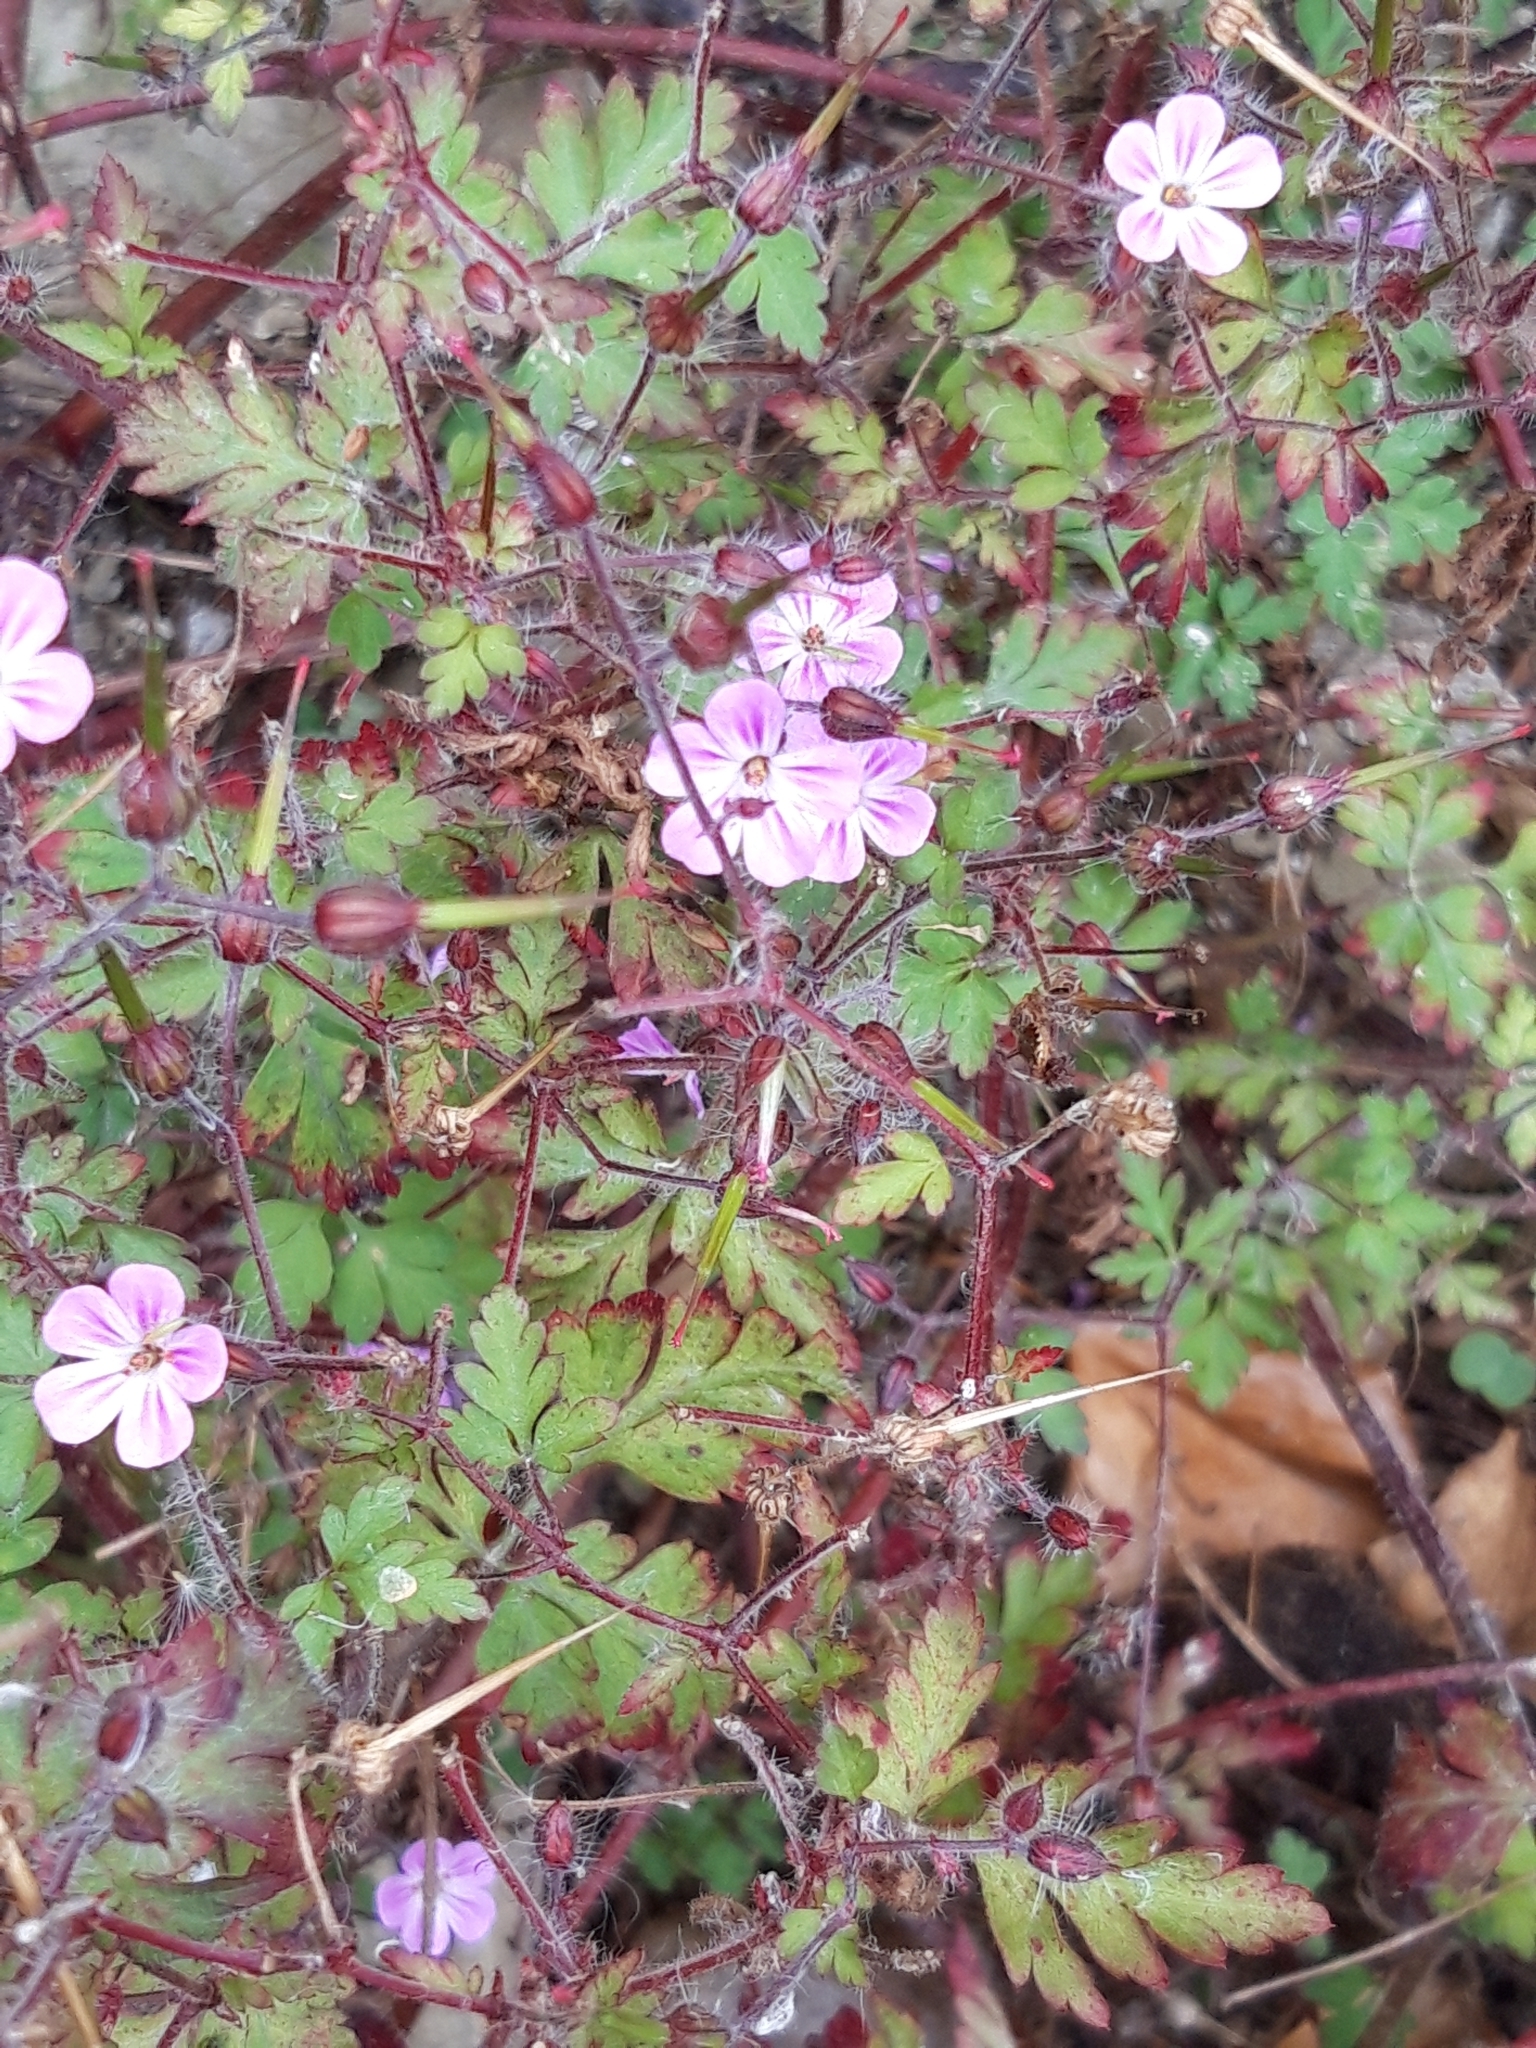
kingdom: Plantae
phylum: Tracheophyta
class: Magnoliopsida
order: Geraniales
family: Geraniaceae
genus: Geranium
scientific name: Geranium robertianum
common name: Herb-robert
